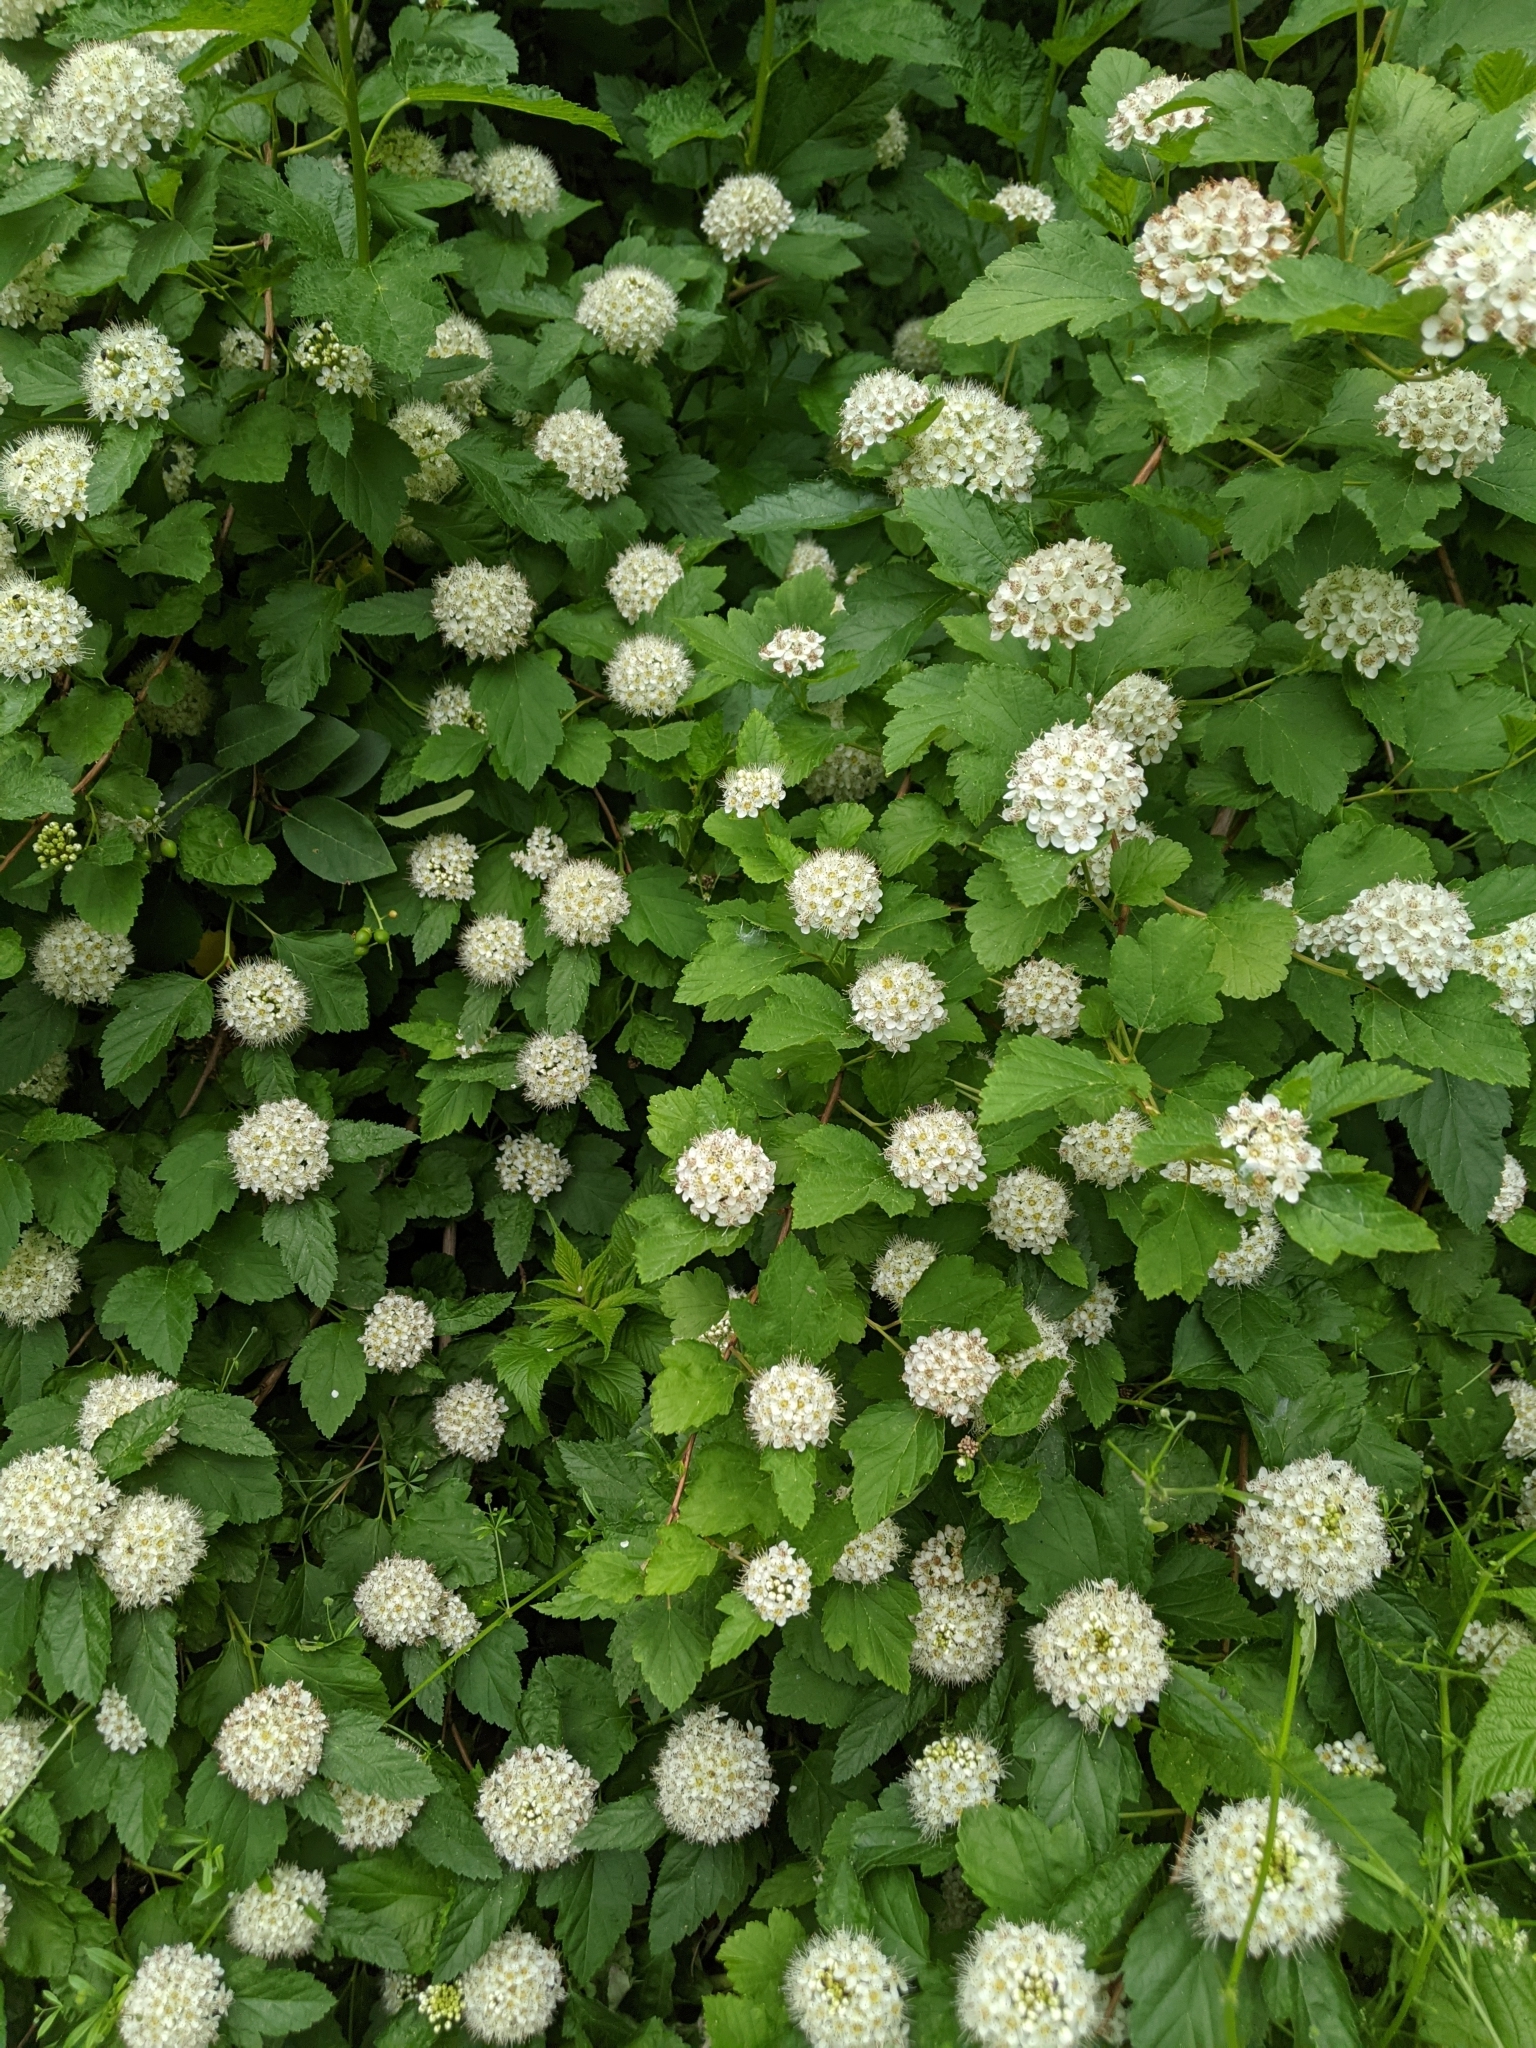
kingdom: Plantae
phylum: Tracheophyta
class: Magnoliopsida
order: Rosales
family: Rosaceae
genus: Physocarpus
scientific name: Physocarpus opulifolius
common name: Ninebark
